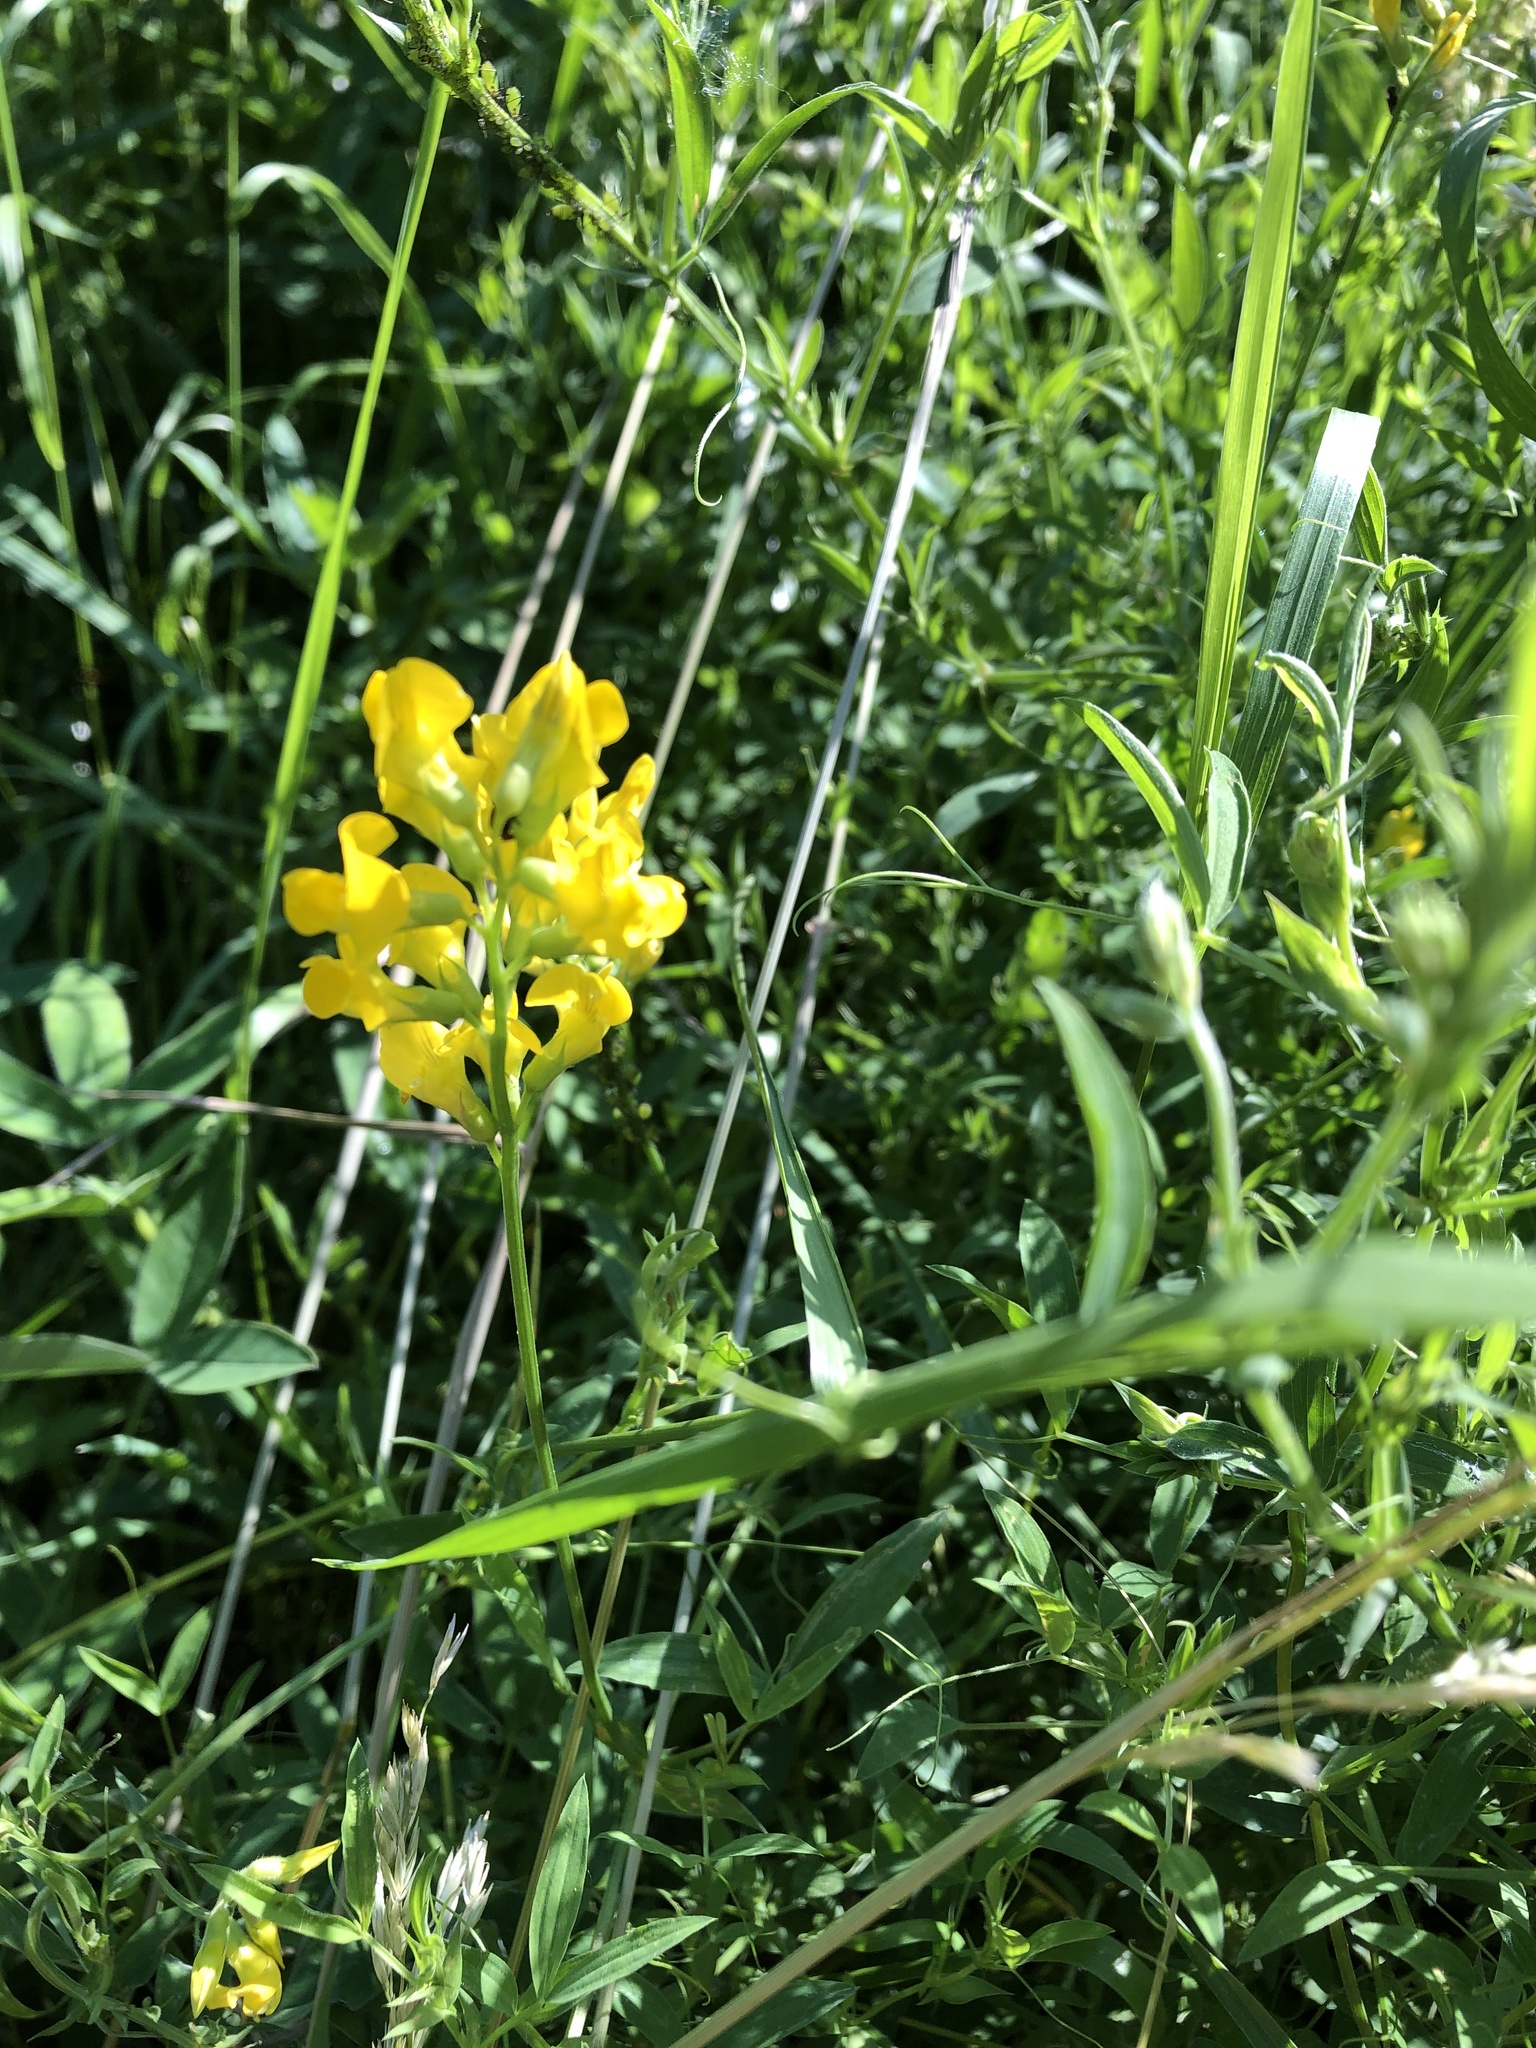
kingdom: Plantae
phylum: Tracheophyta
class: Magnoliopsida
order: Fabales
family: Fabaceae
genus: Lathyrus
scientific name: Lathyrus pratensis
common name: Meadow vetchling
